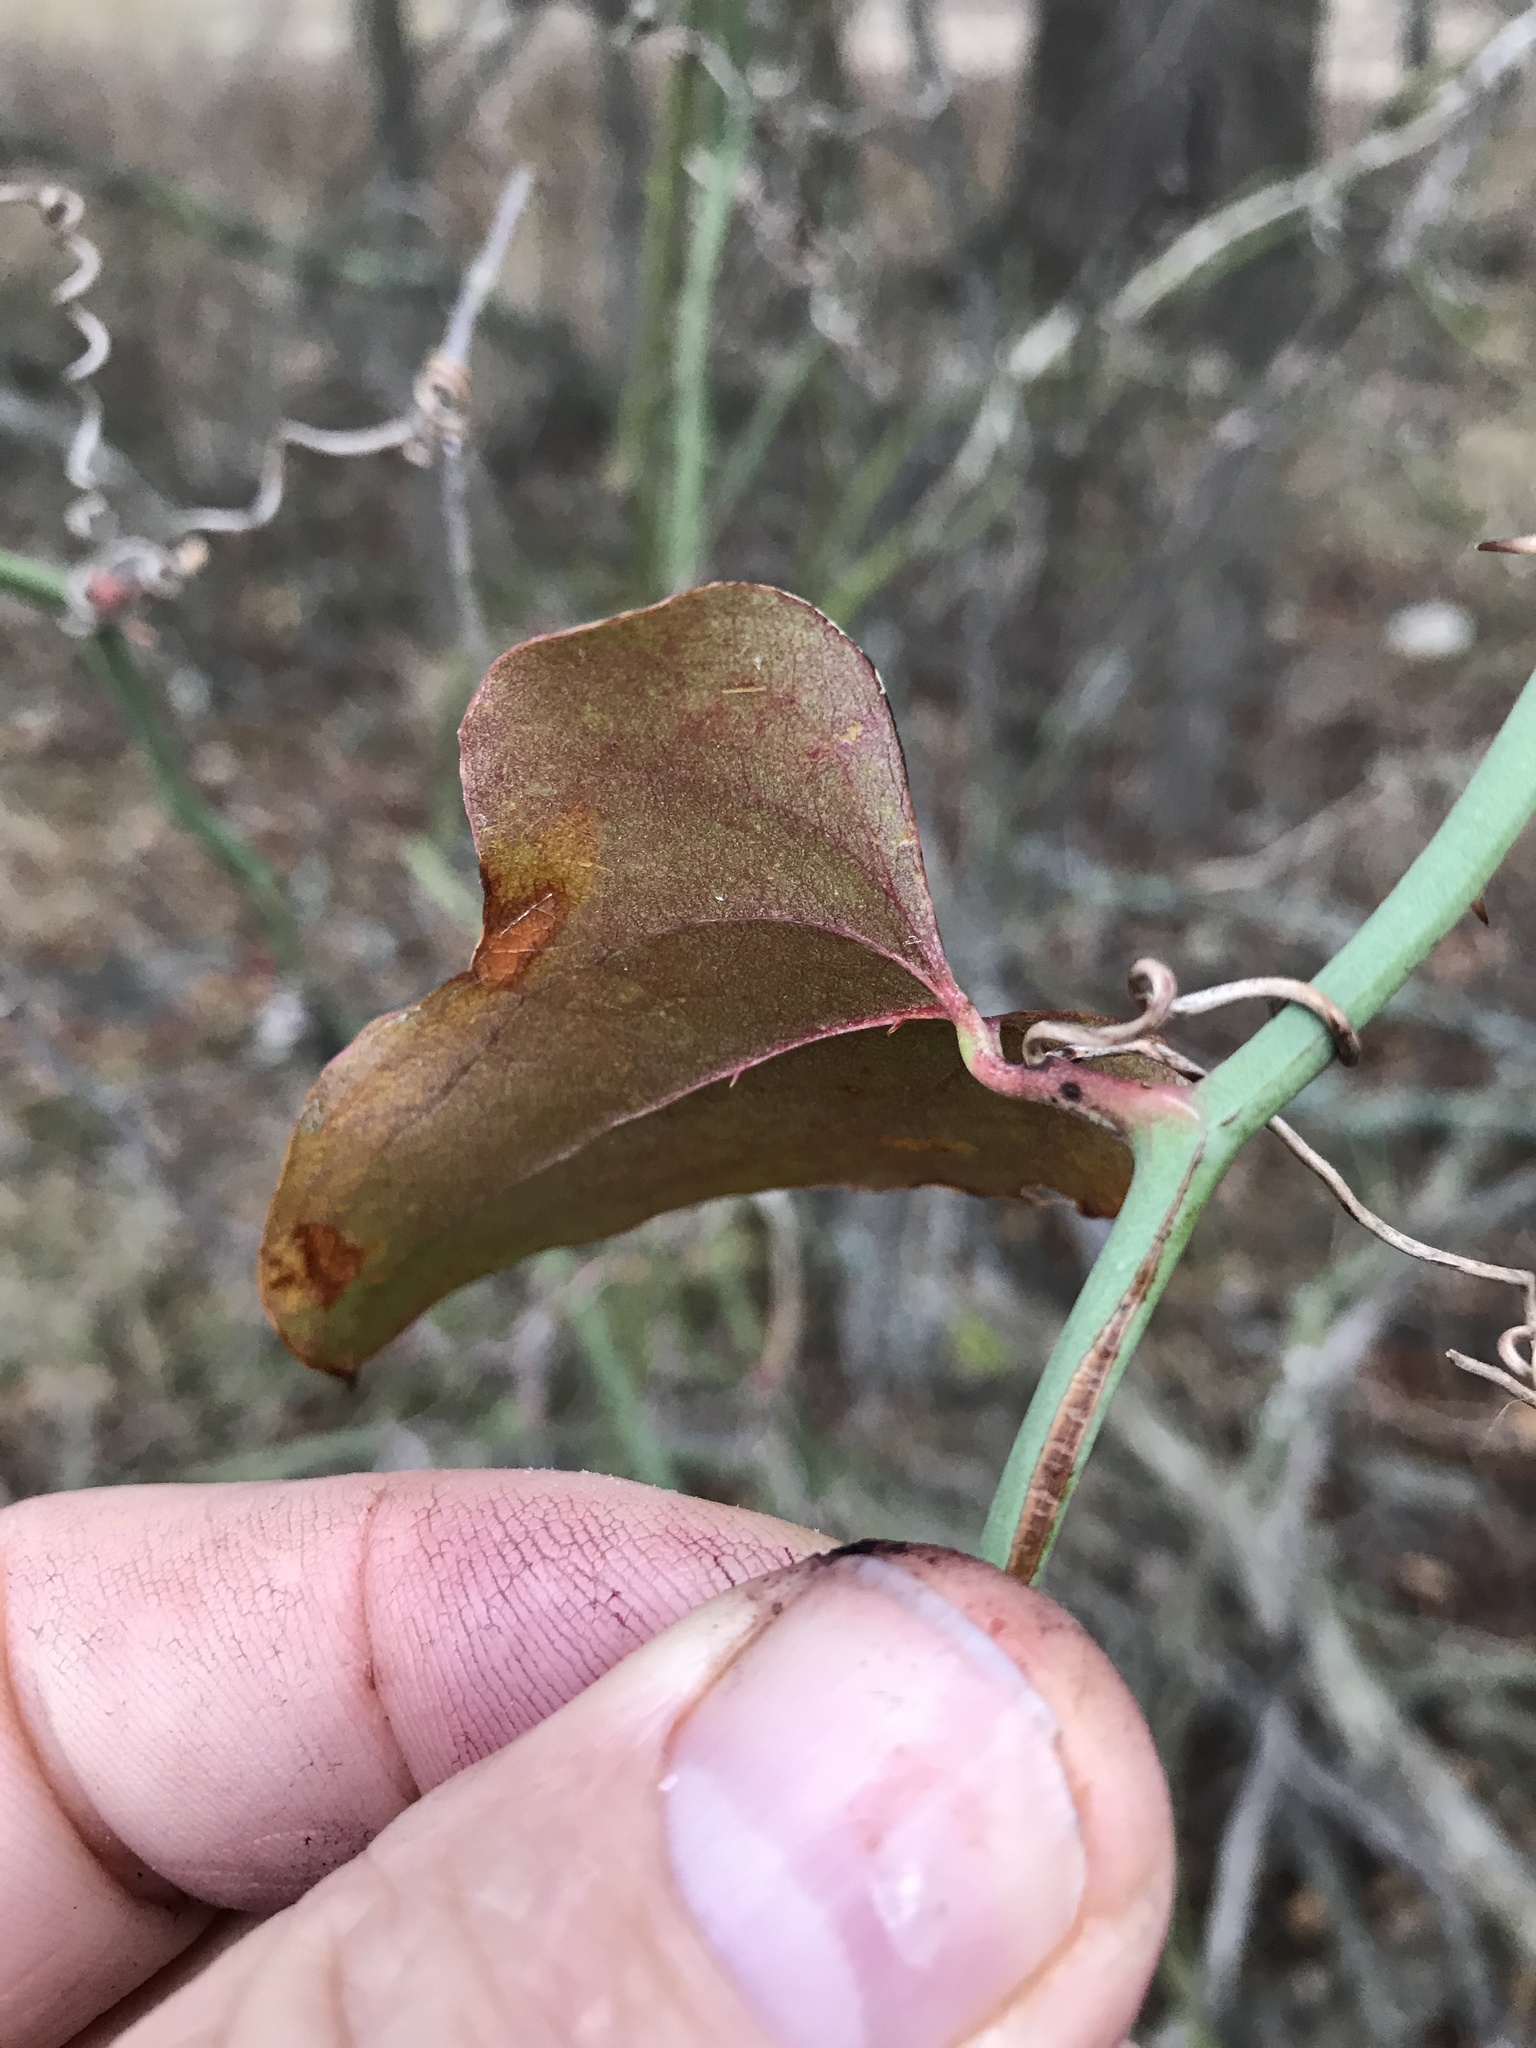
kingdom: Plantae
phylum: Tracheophyta
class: Liliopsida
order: Liliales
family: Smilacaceae
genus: Smilax
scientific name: Smilax bona-nox
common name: Catbrier
